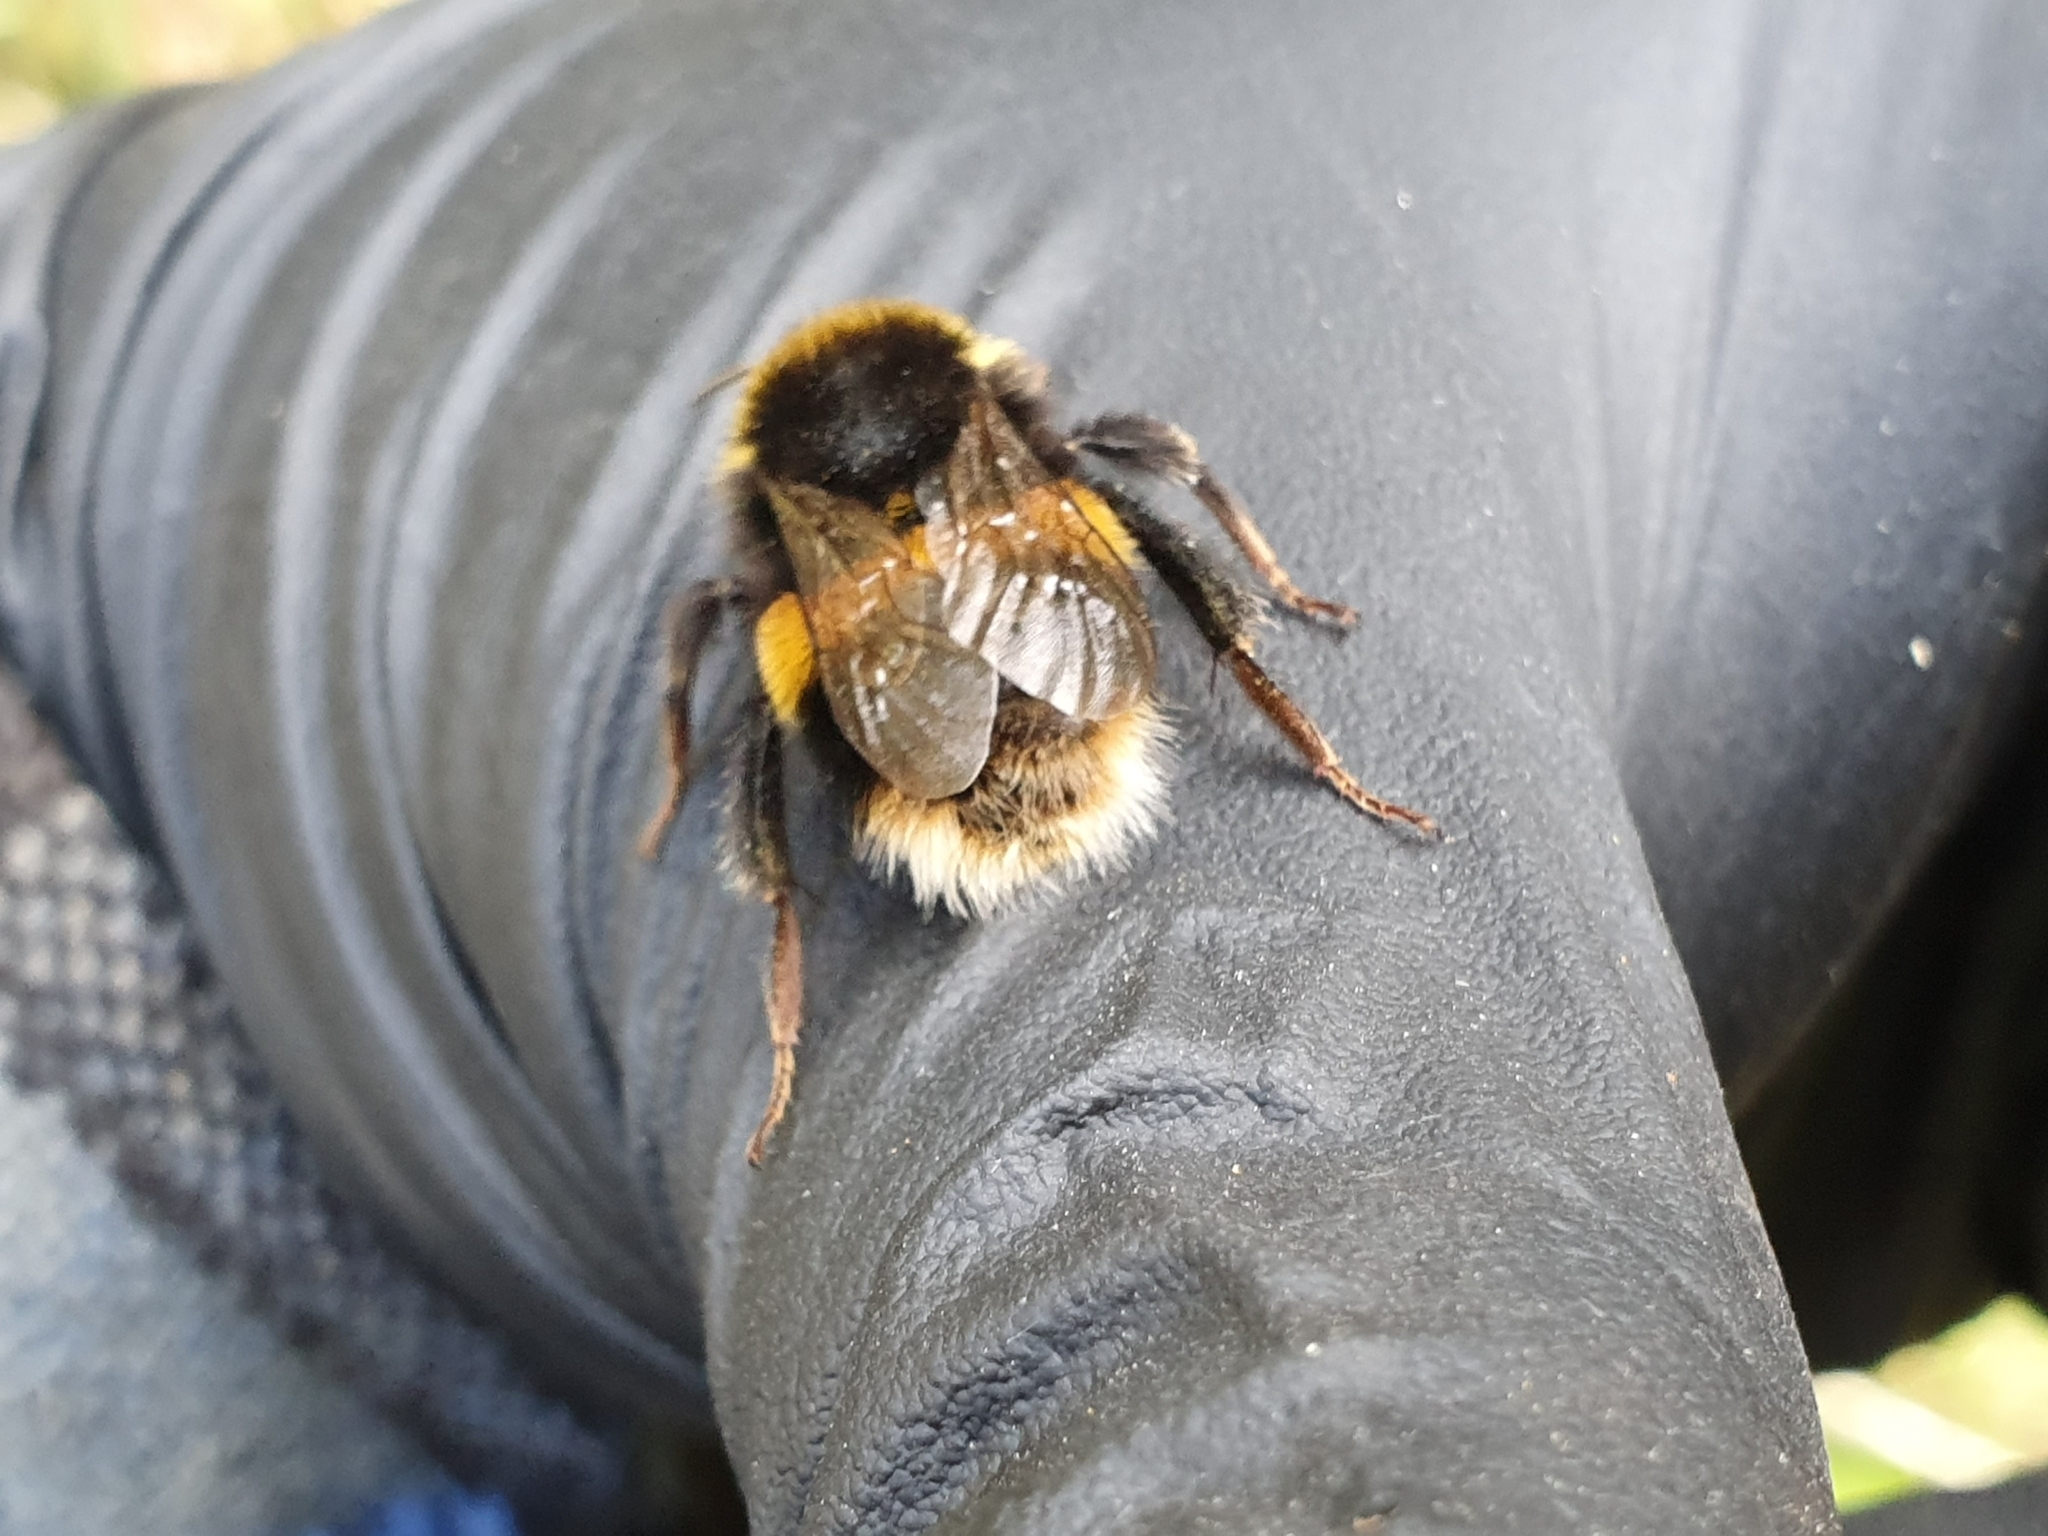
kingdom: Animalia
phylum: Arthropoda
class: Insecta
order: Hymenoptera
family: Apidae
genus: Bombus
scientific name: Bombus terrestris
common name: Buff-tailed bumblebee
